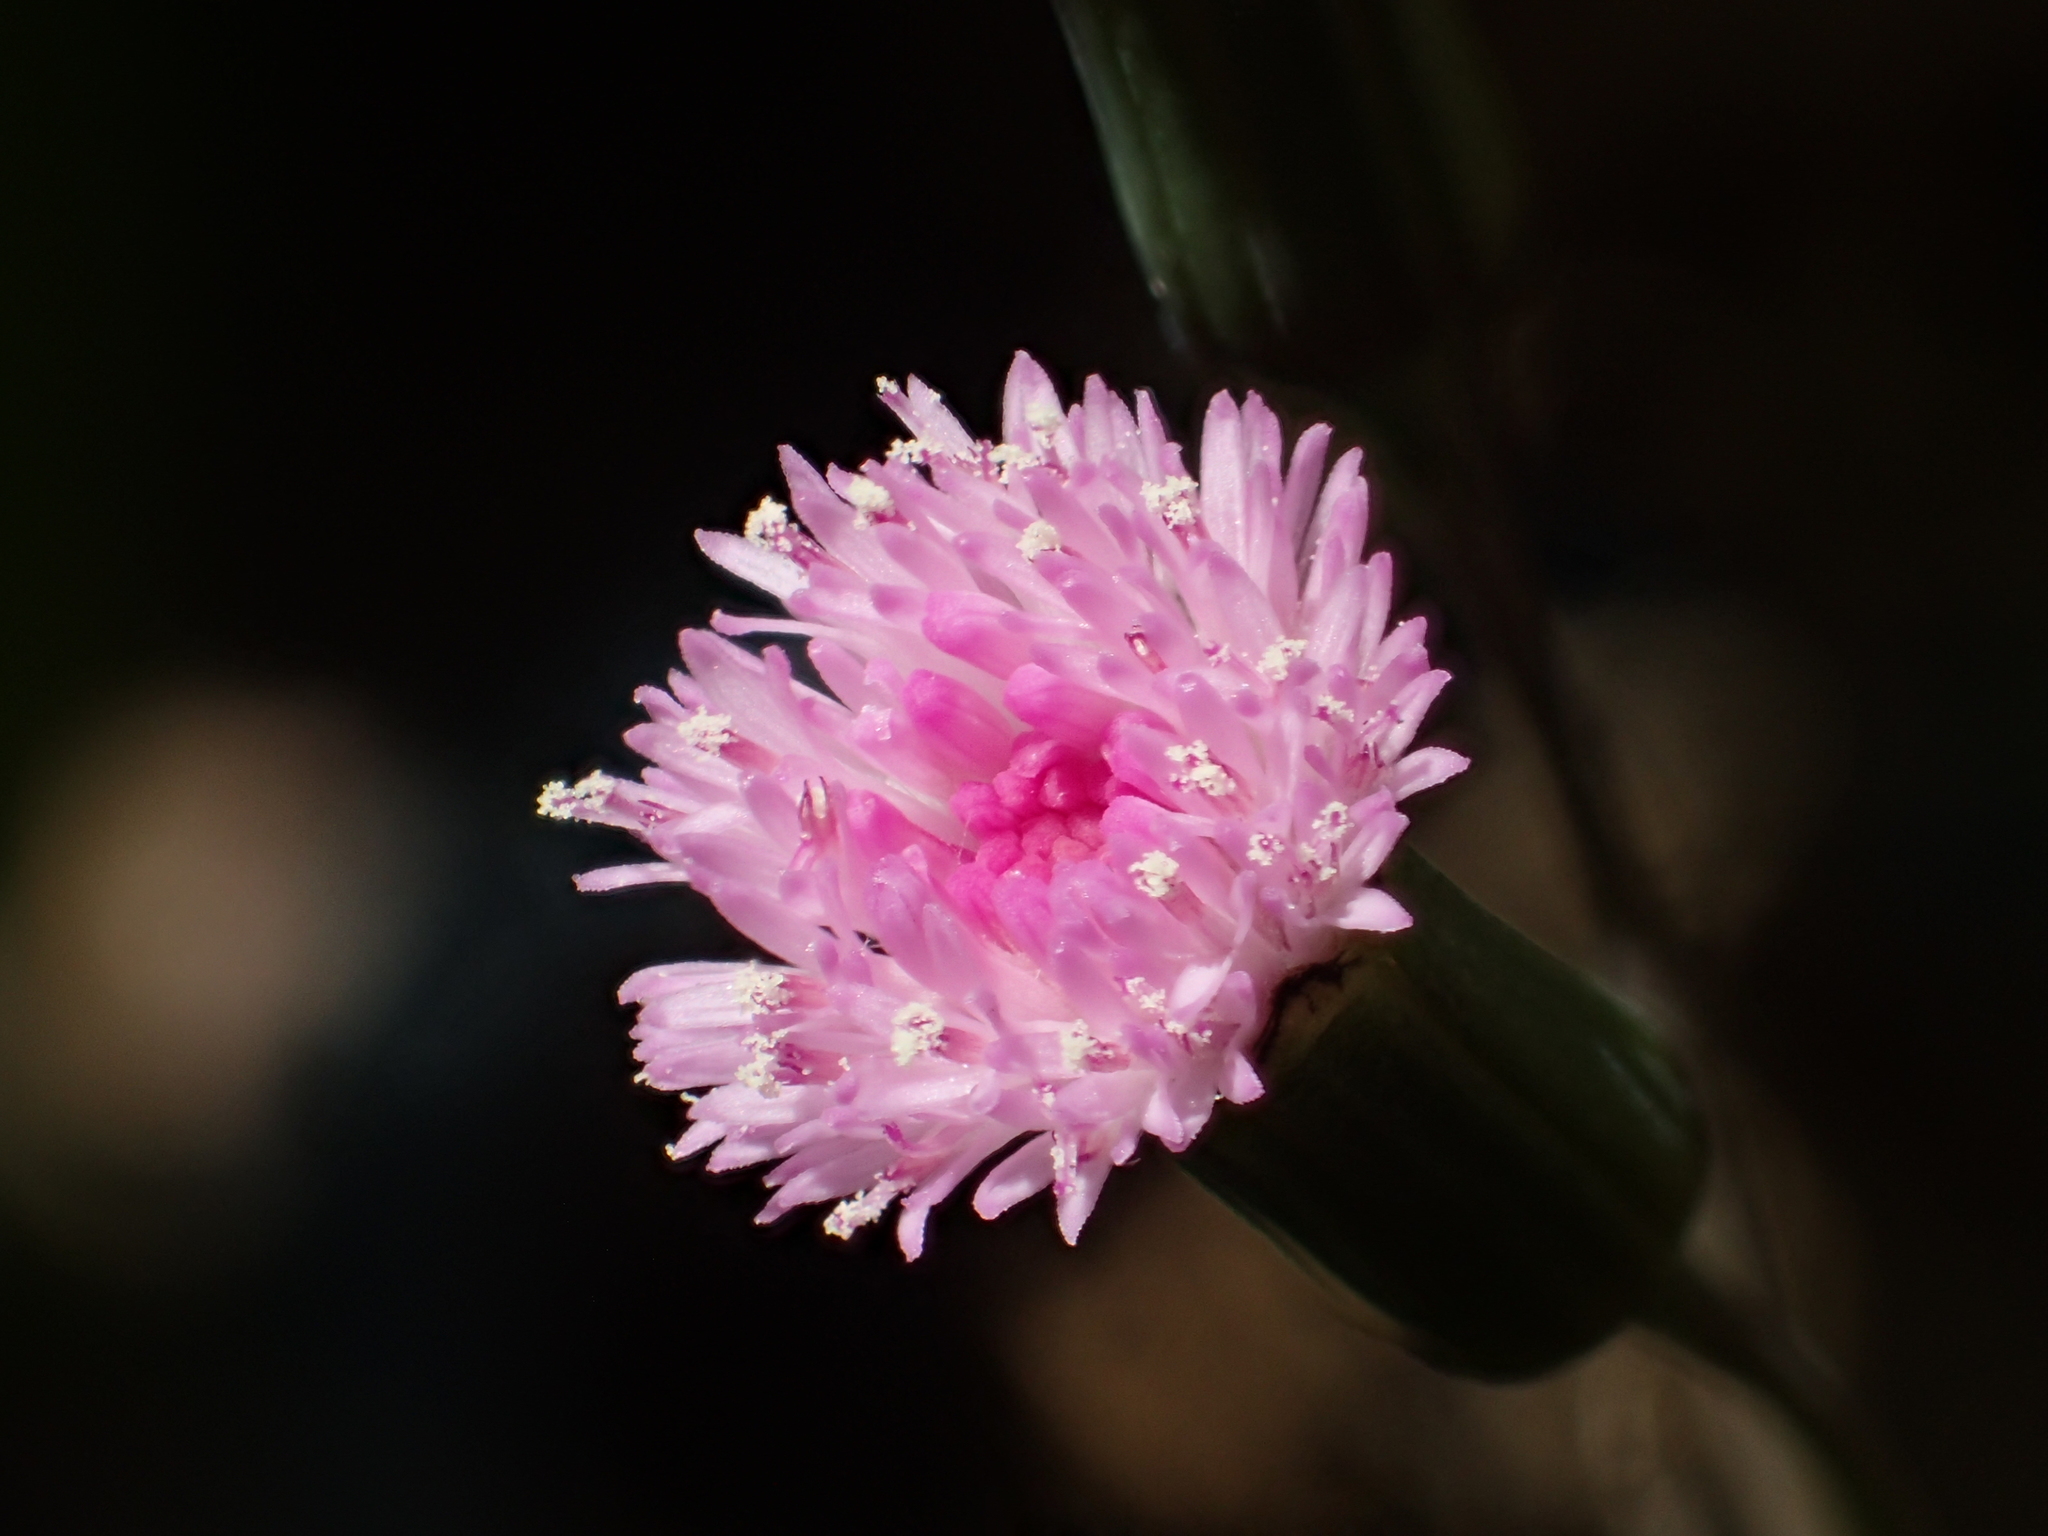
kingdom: Plantae
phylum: Tracheophyta
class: Magnoliopsida
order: Asterales
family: Asteraceae
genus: Emilia
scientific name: Emilia javanica
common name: Tassel-flower
